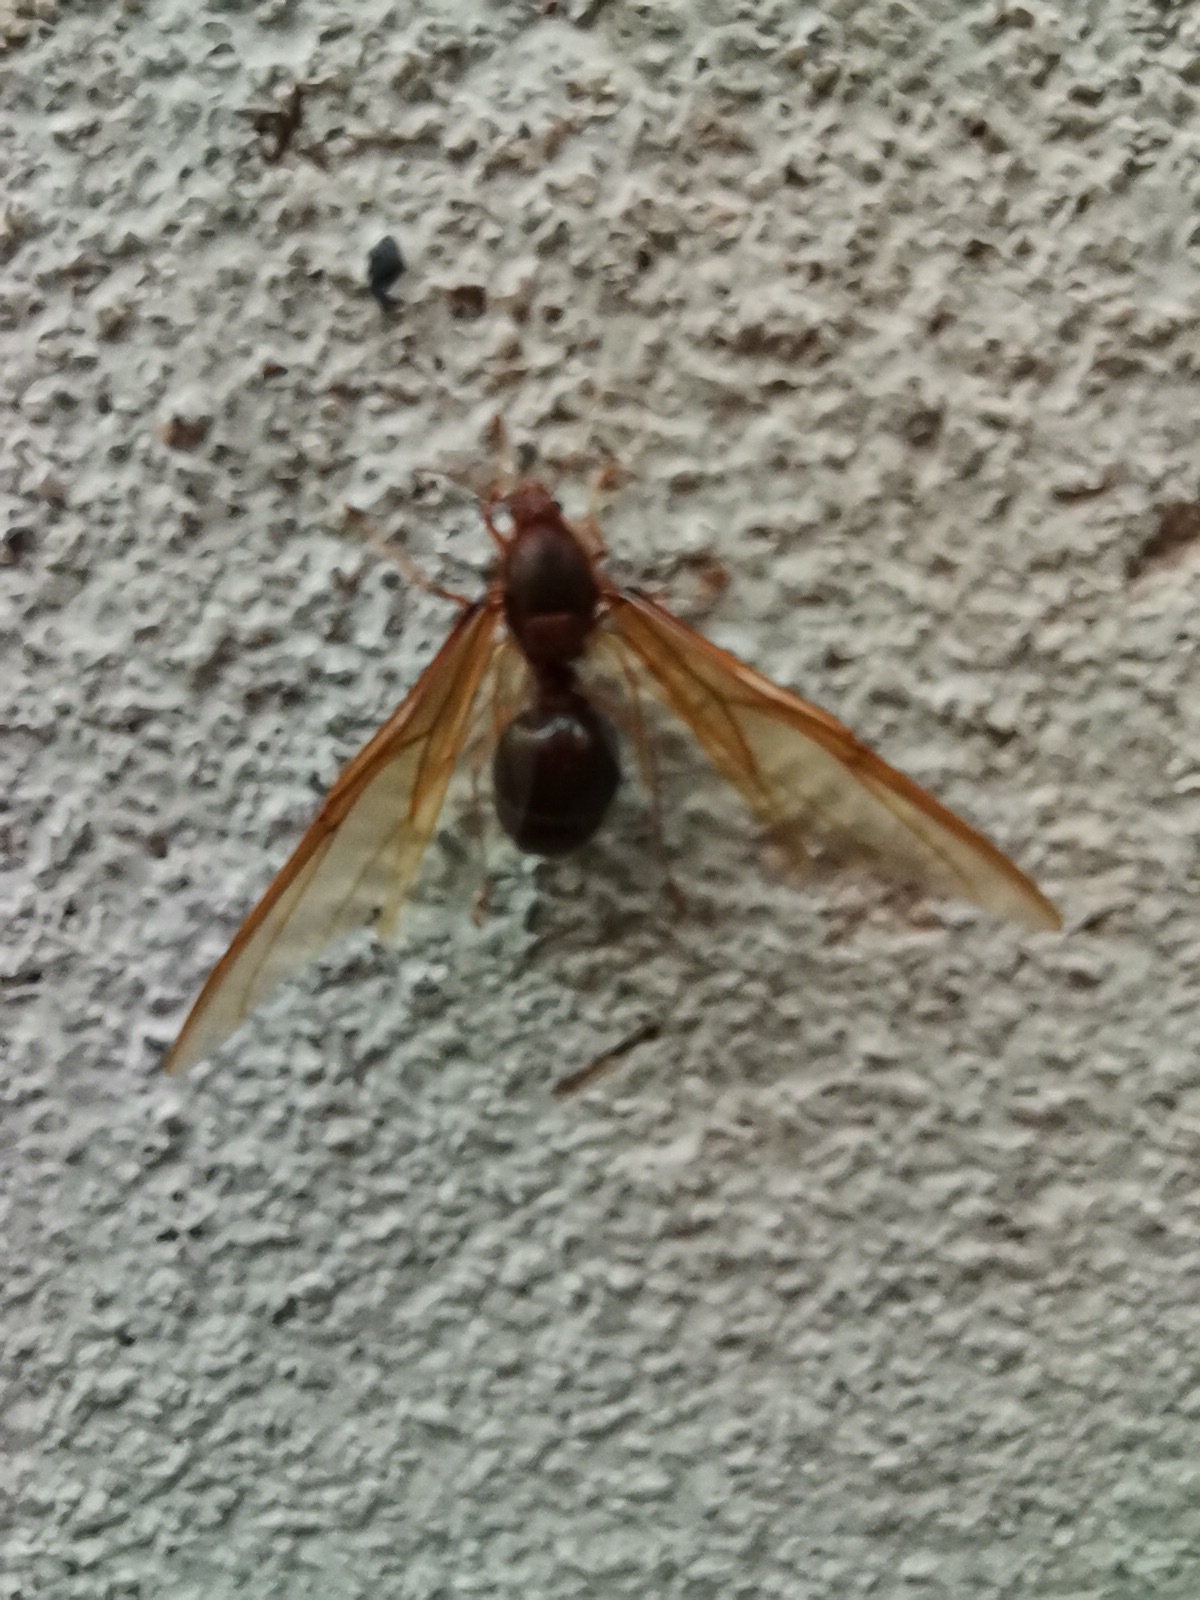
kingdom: Animalia
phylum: Arthropoda
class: Insecta
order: Hymenoptera
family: Formicidae
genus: Atta
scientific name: Atta mexicana
